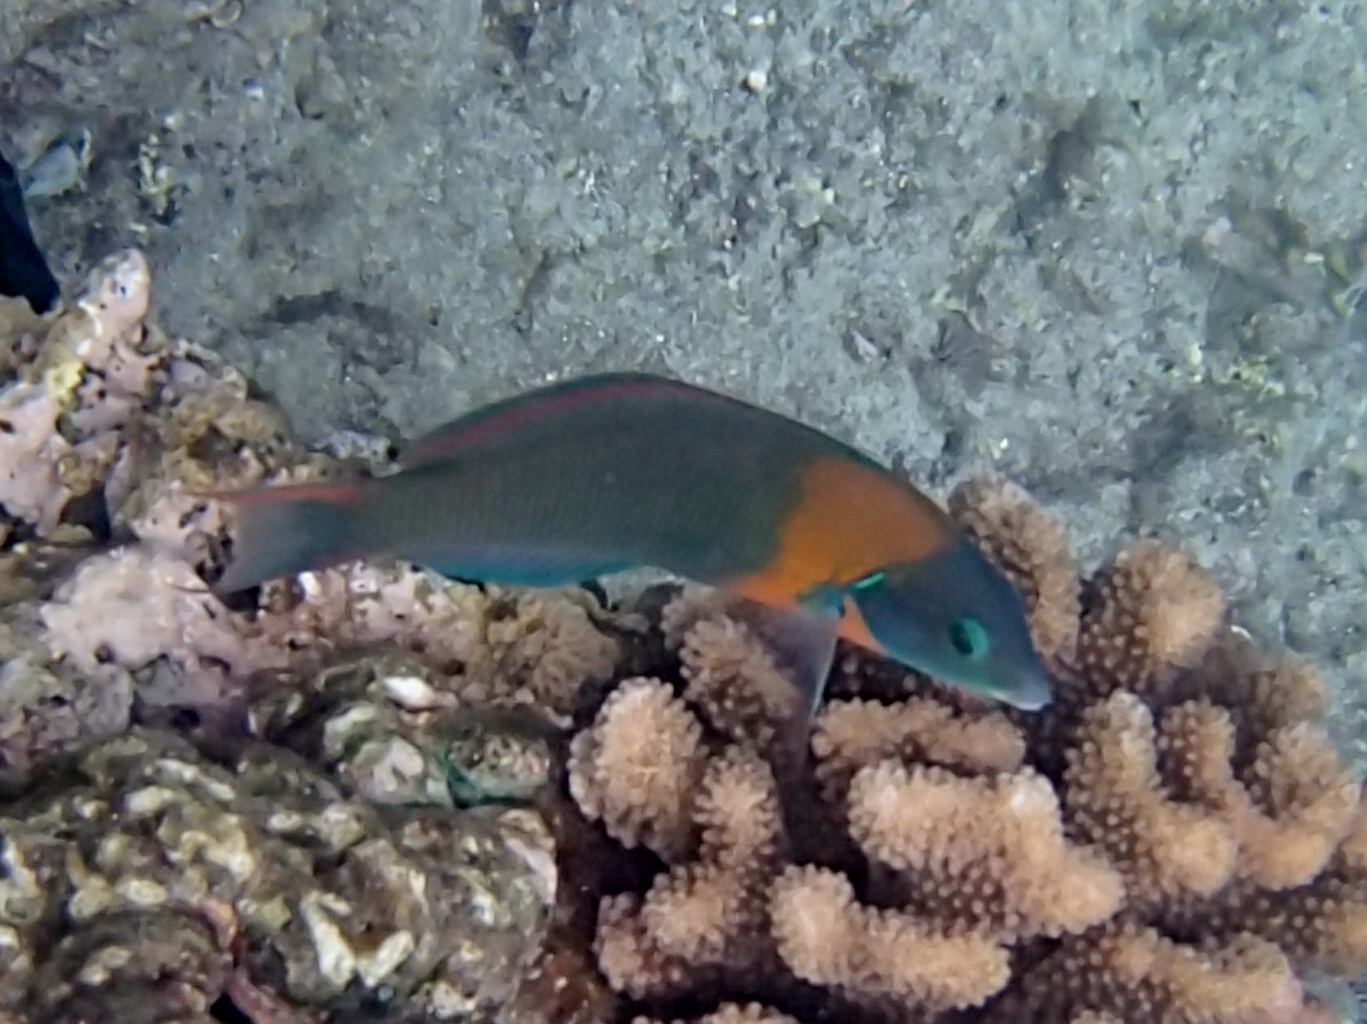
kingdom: Animalia
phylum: Chordata
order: Perciformes
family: Labridae
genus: Thalassoma
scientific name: Thalassoma duperrey
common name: Saddle wrasse
